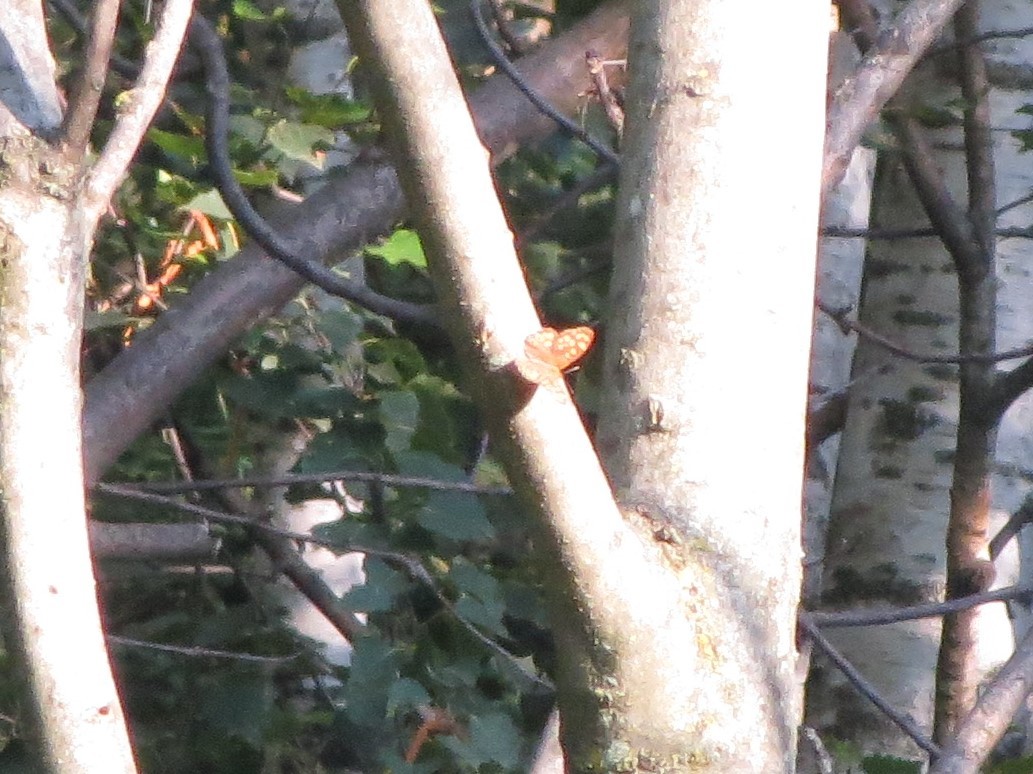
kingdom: Animalia
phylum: Arthropoda
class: Insecta
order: Lepidoptera
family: Nymphalidae
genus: Pararge
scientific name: Pararge aegeria
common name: Speckled wood
